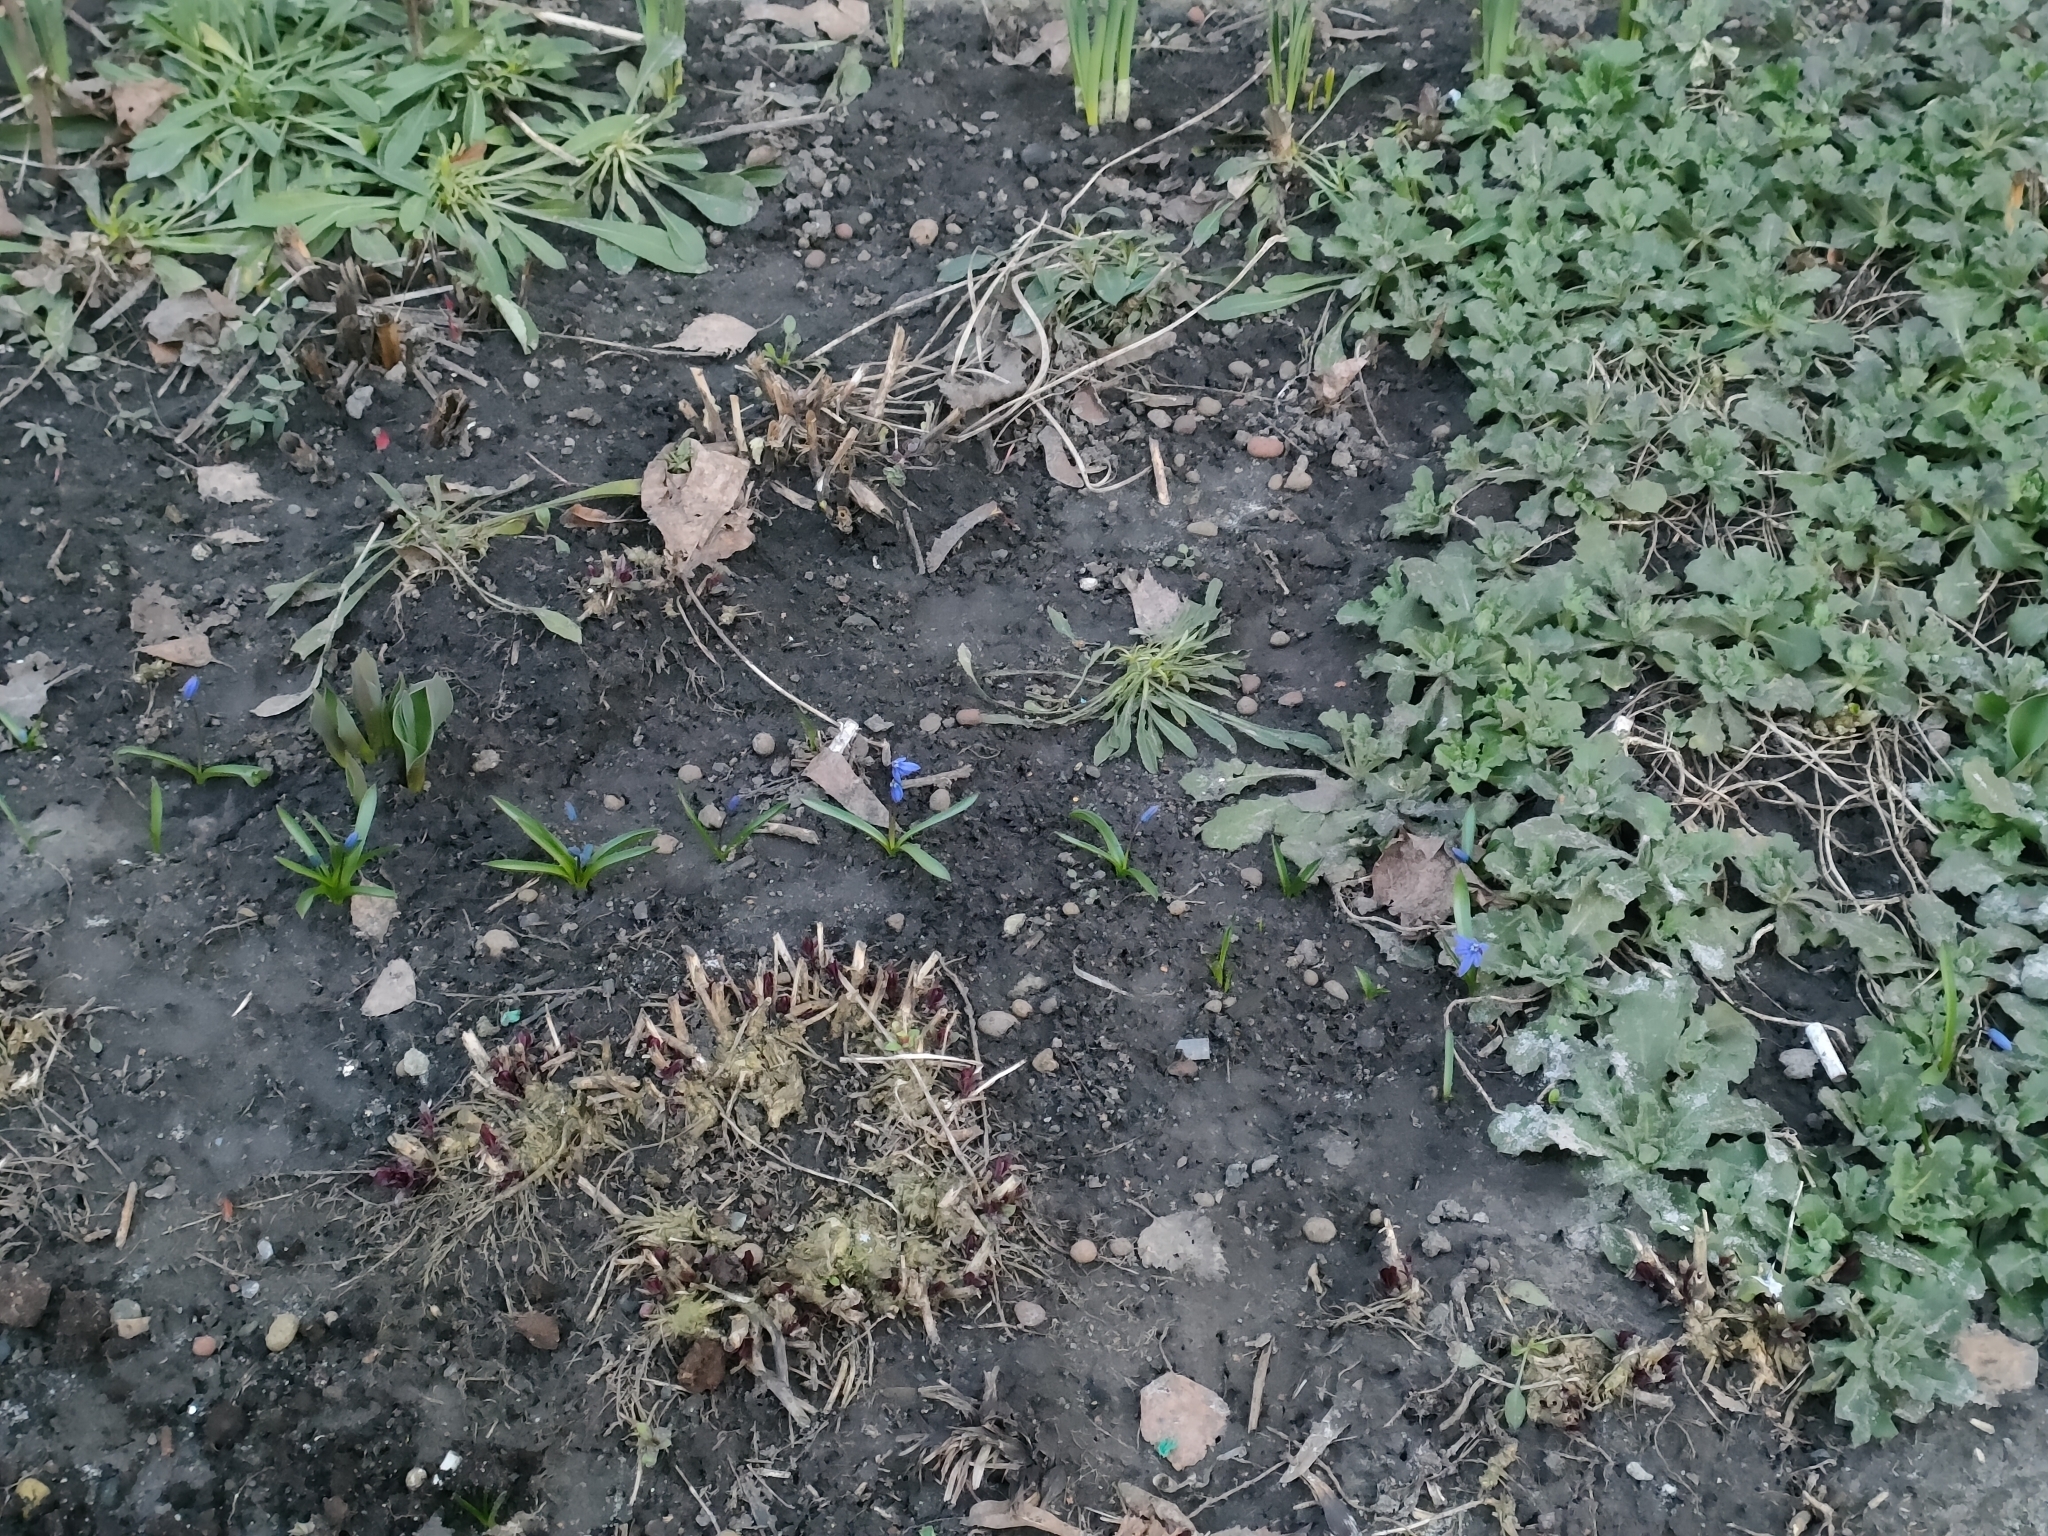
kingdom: Plantae
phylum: Tracheophyta
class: Liliopsida
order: Asparagales
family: Asparagaceae
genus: Scilla
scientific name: Scilla siberica
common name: Siberian squill
